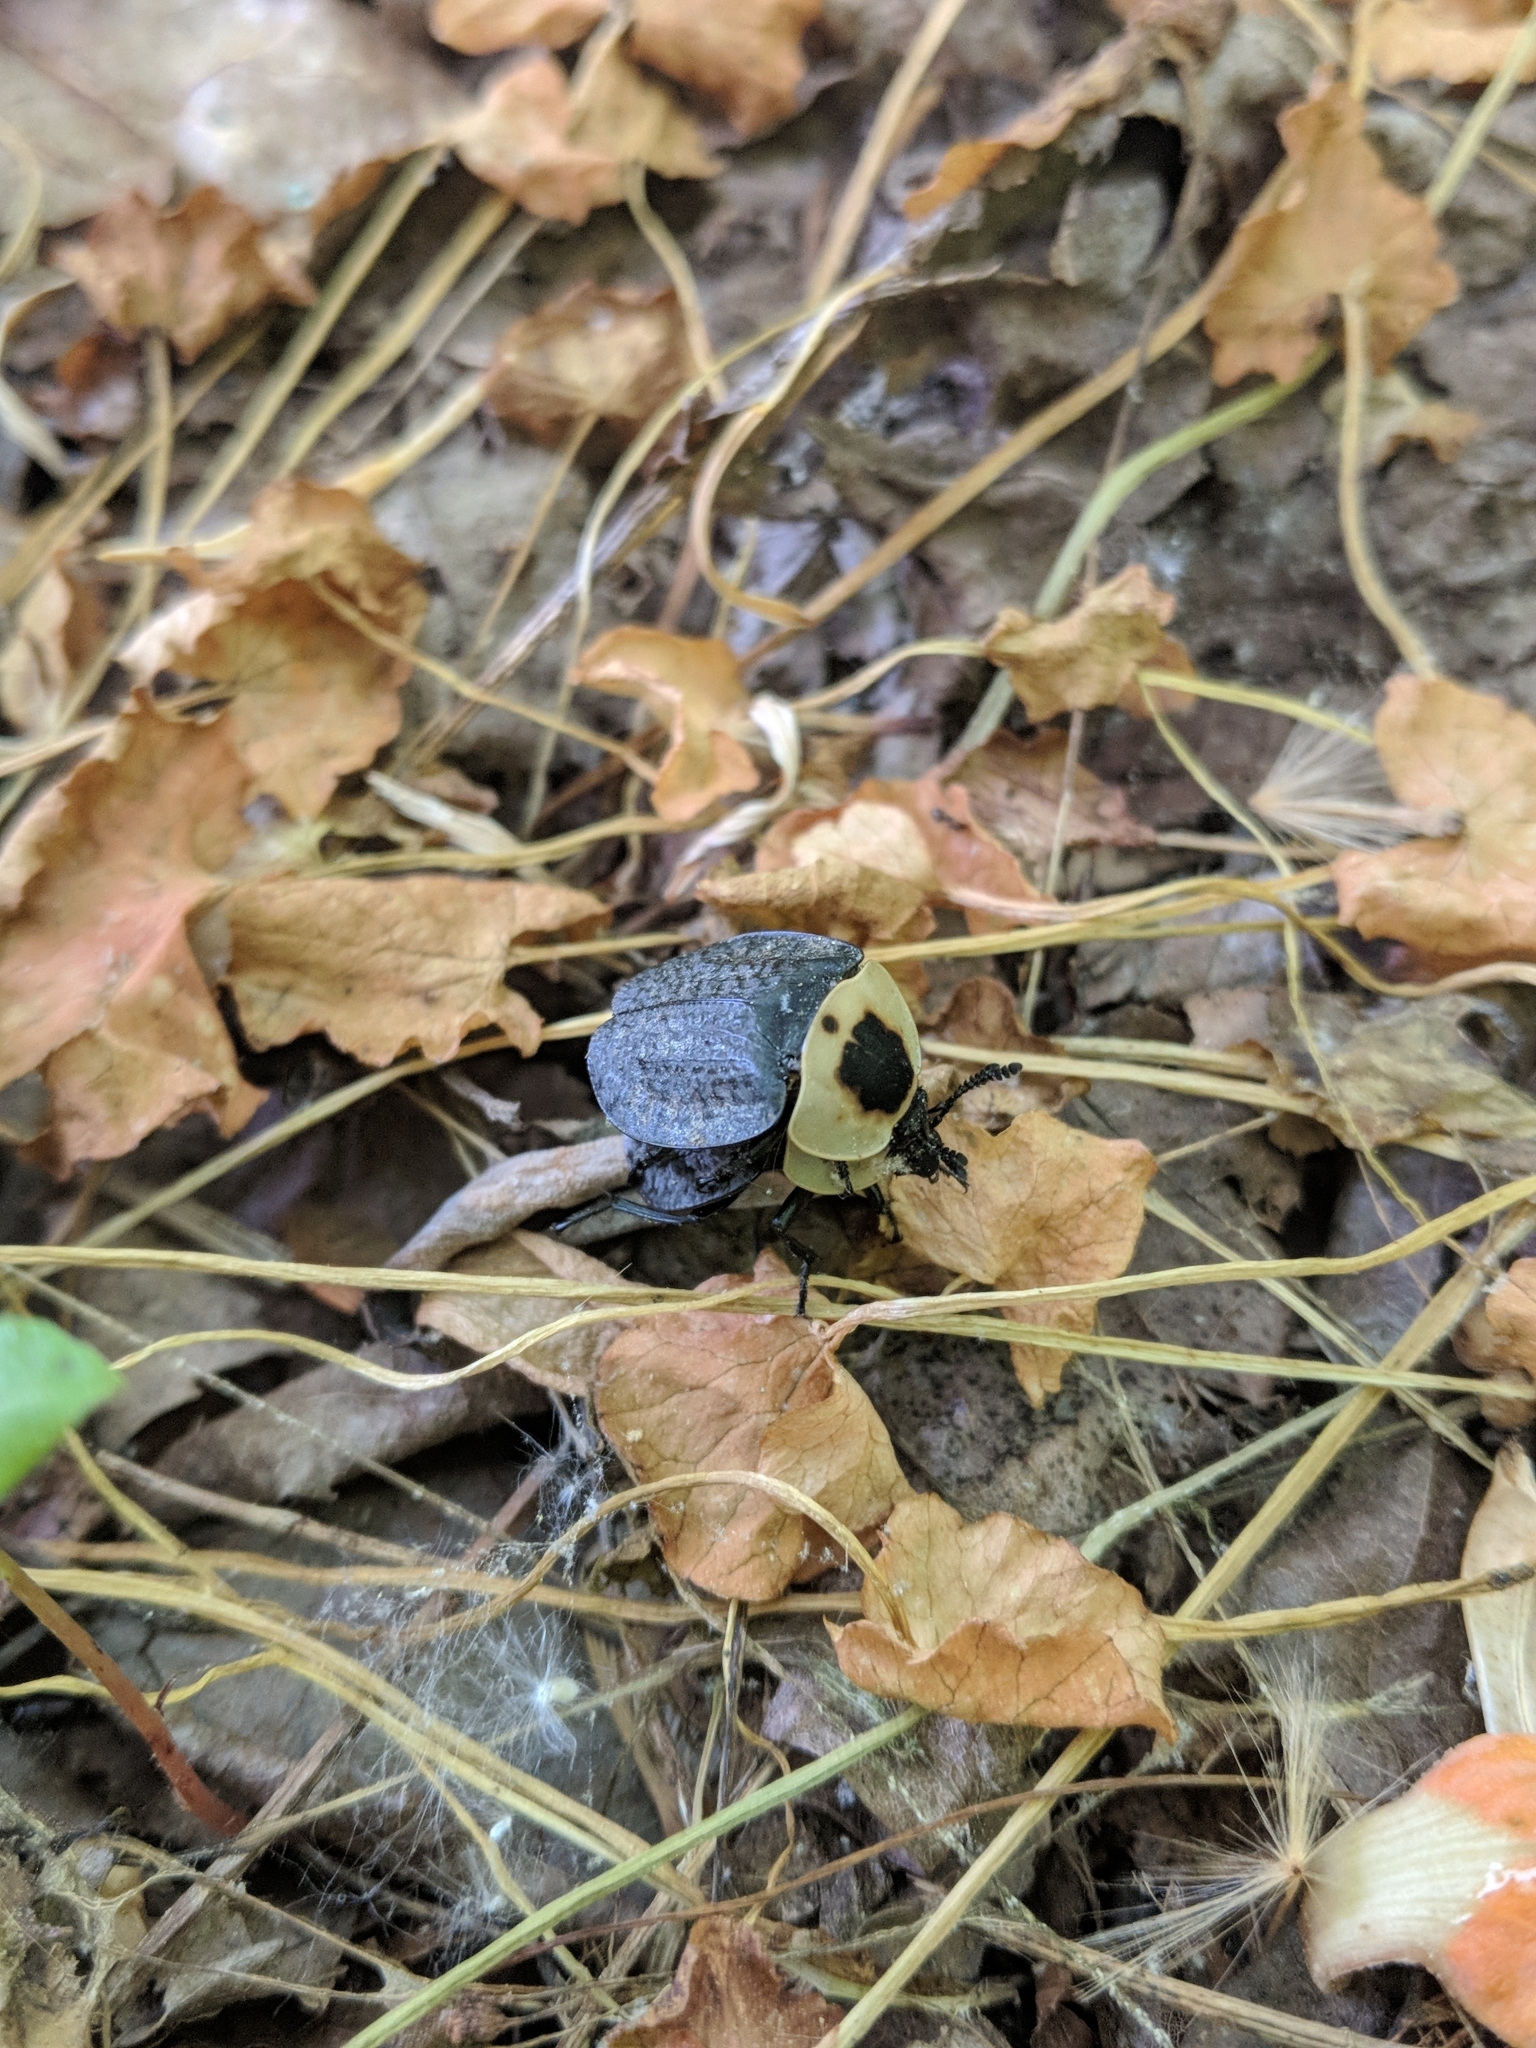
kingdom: Animalia
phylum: Arthropoda
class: Insecta
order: Coleoptera
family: Staphylinidae
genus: Necrophila
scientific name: Necrophila americana
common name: American carrion beetle
